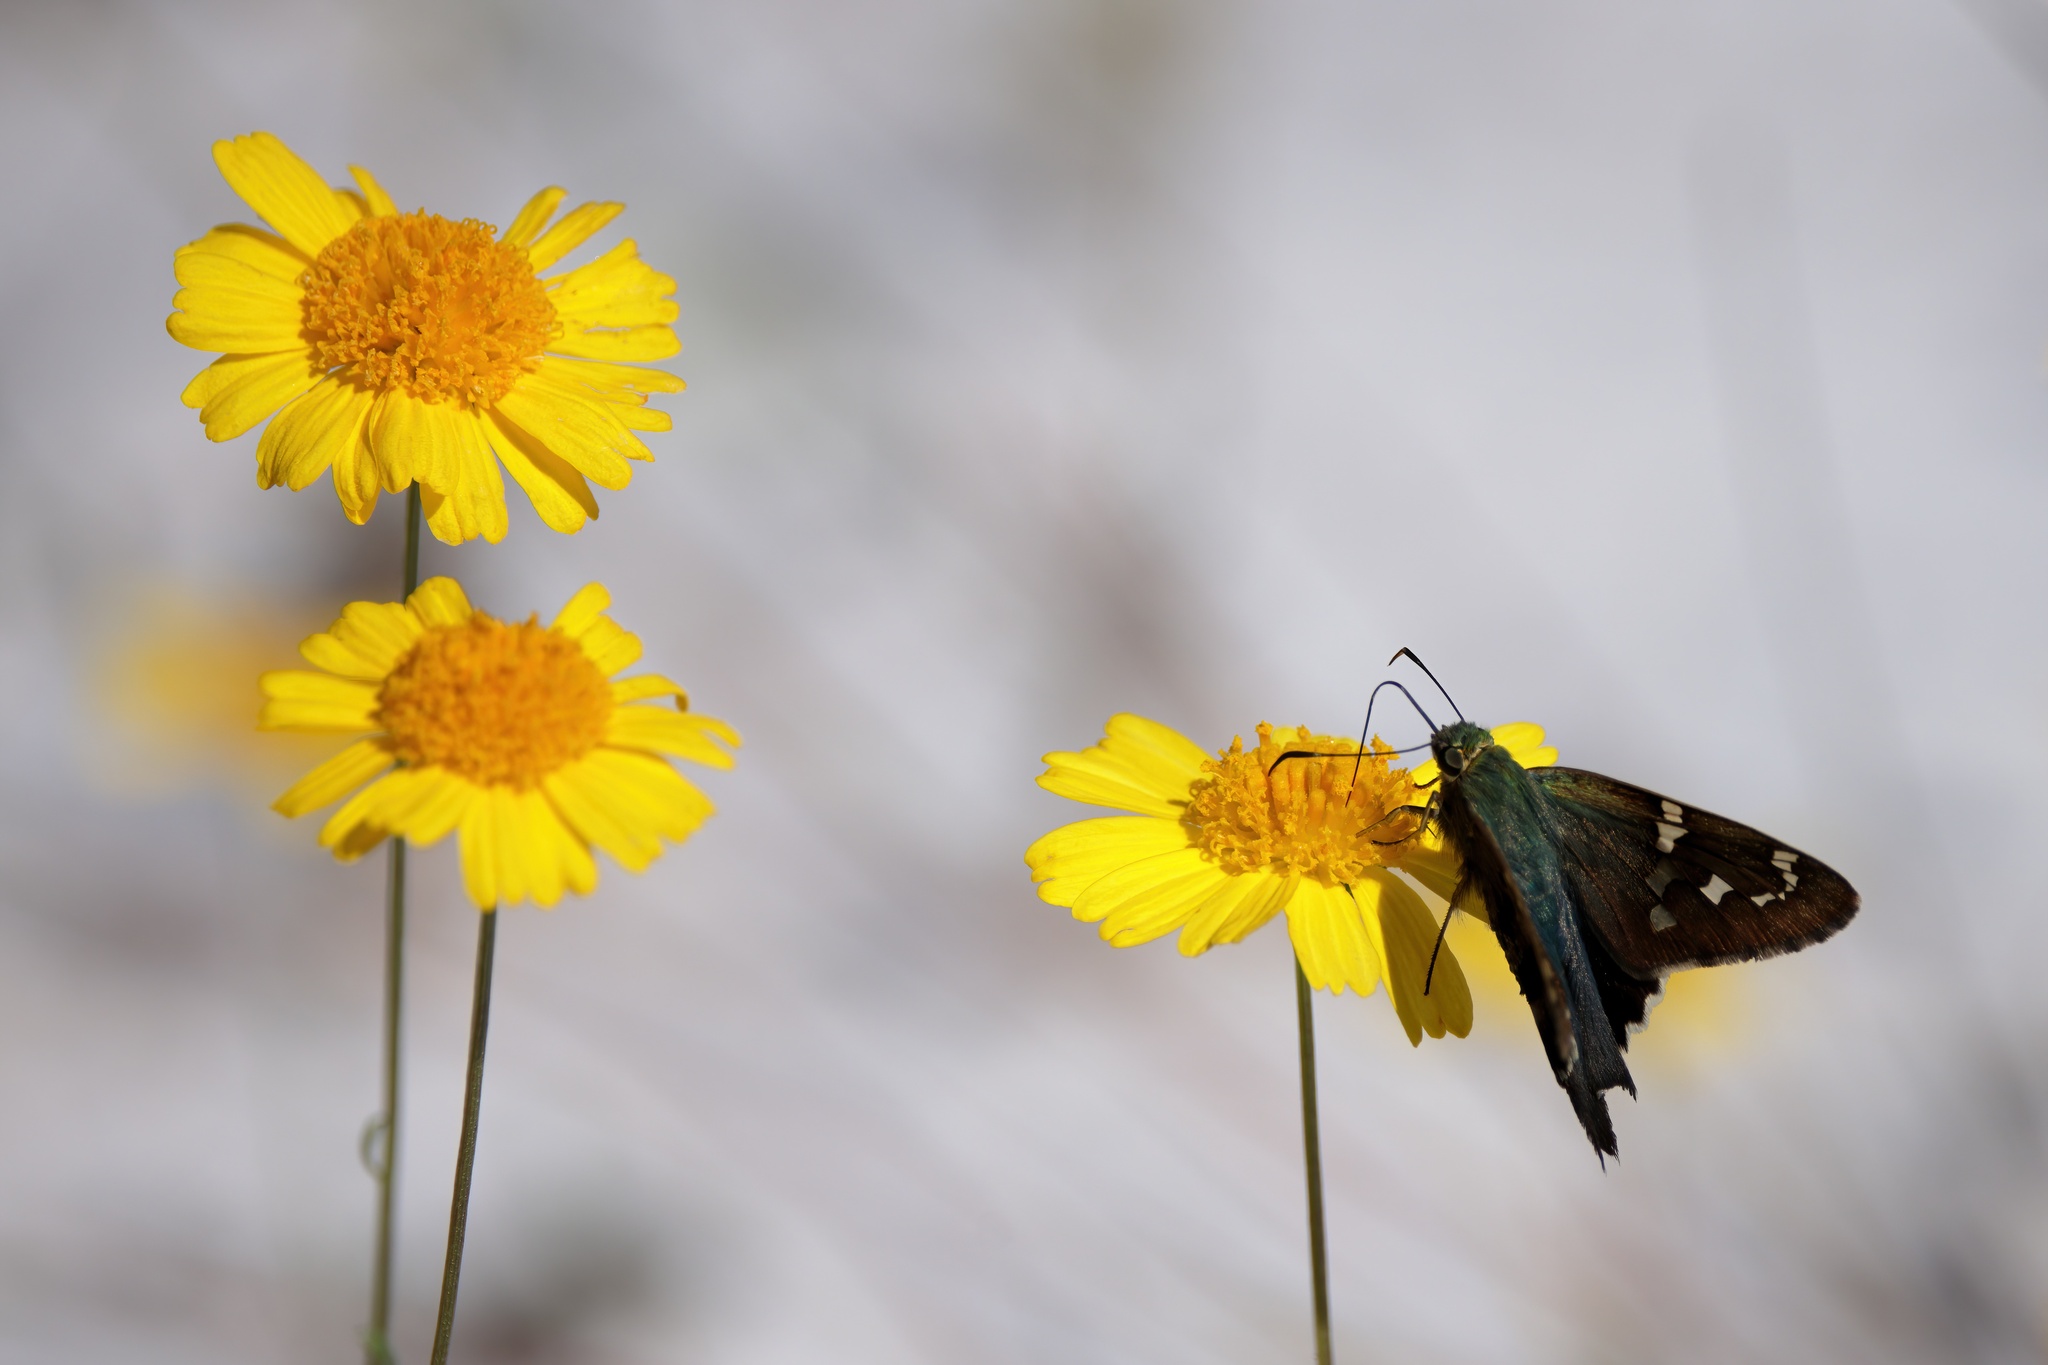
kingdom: Animalia
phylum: Arthropoda
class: Insecta
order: Lepidoptera
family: Hesperiidae
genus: Urbanus
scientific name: Urbanus proteus
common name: Long-tailed skipper
